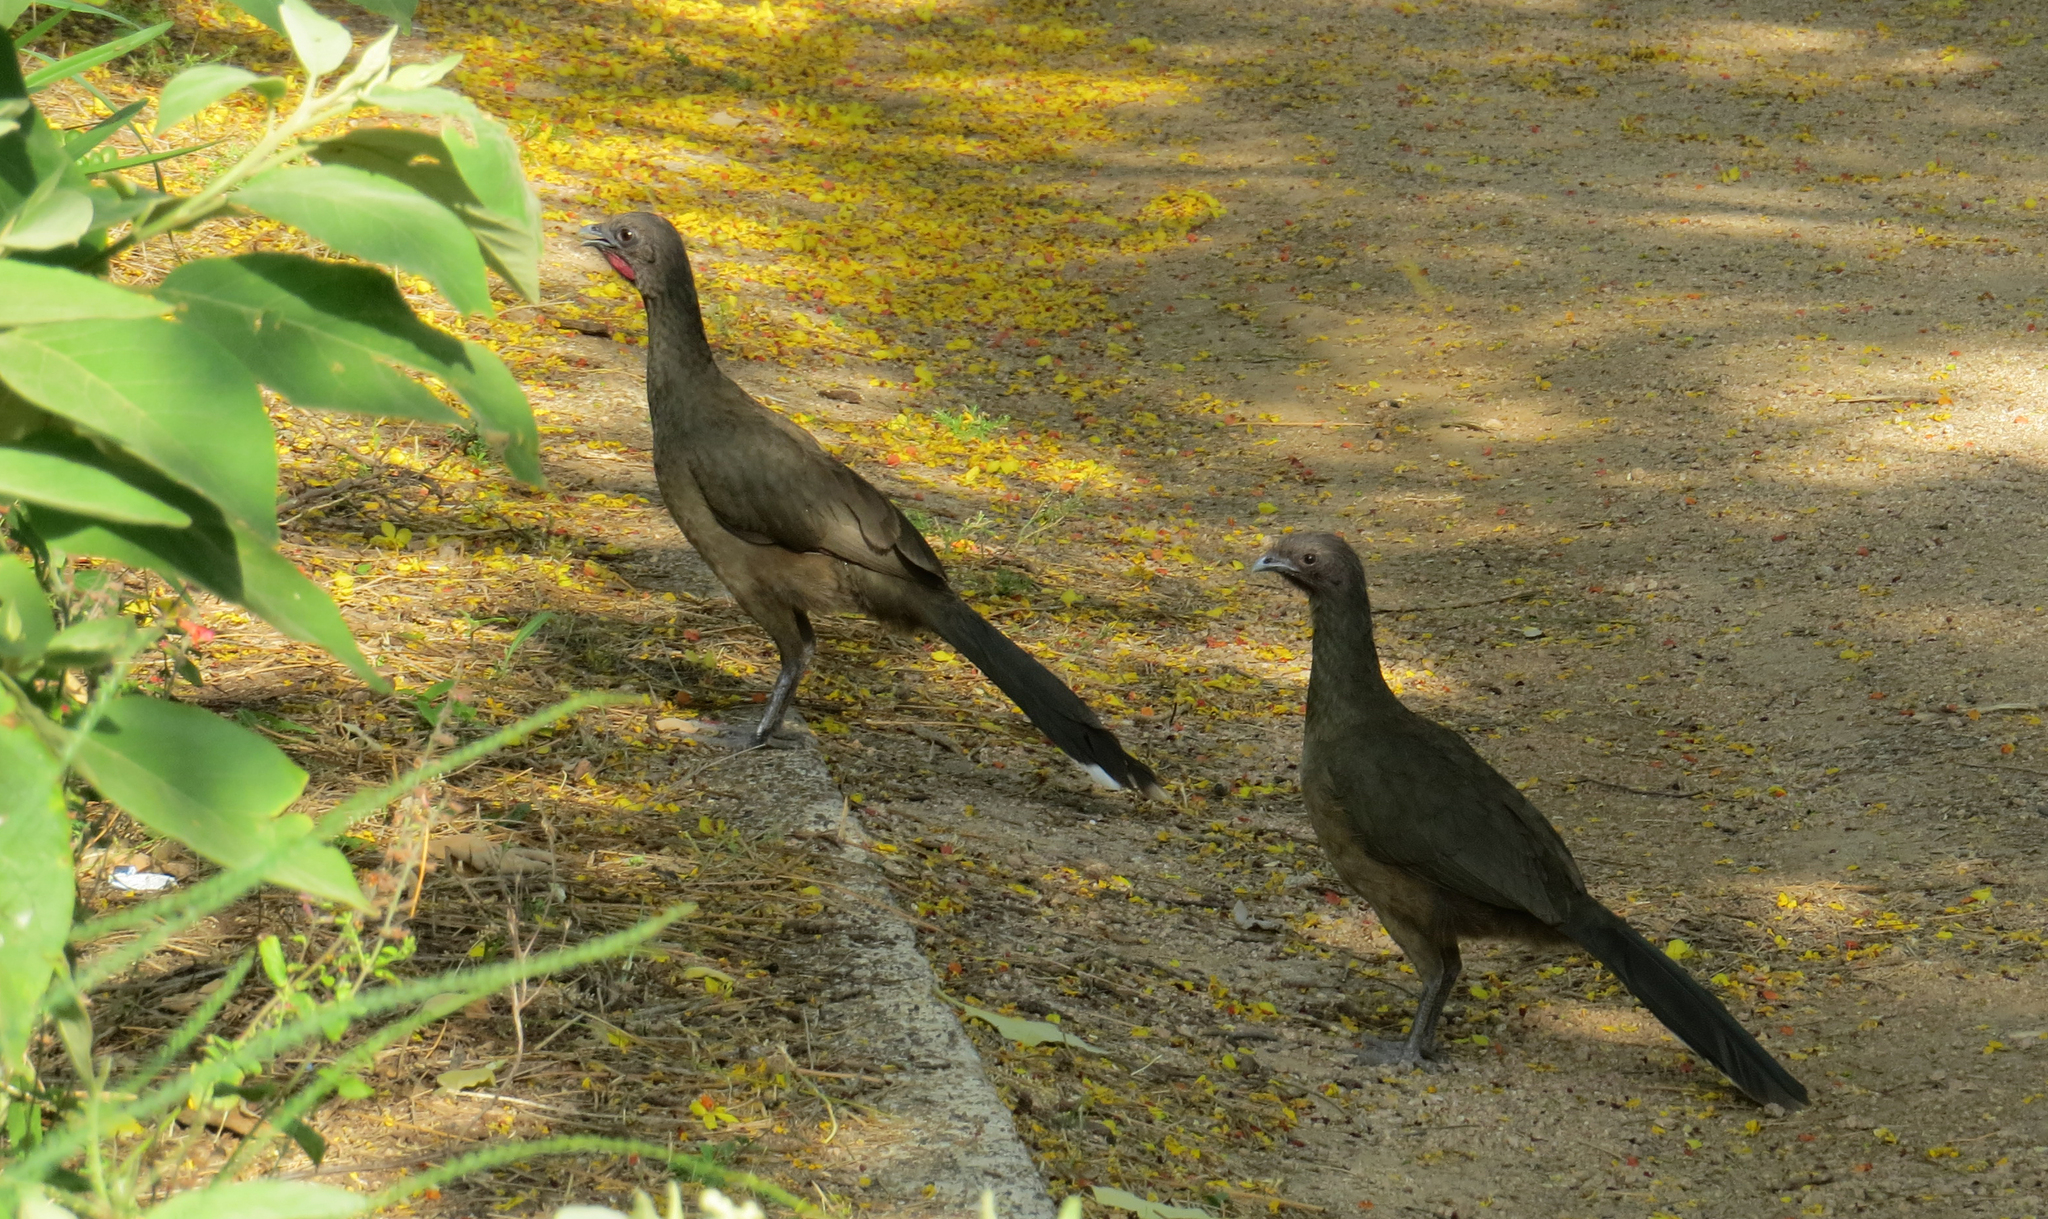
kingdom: Animalia
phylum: Chordata
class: Aves
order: Galliformes
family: Cracidae
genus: Ortalis
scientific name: Ortalis vetula
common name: Plain chachalaca
